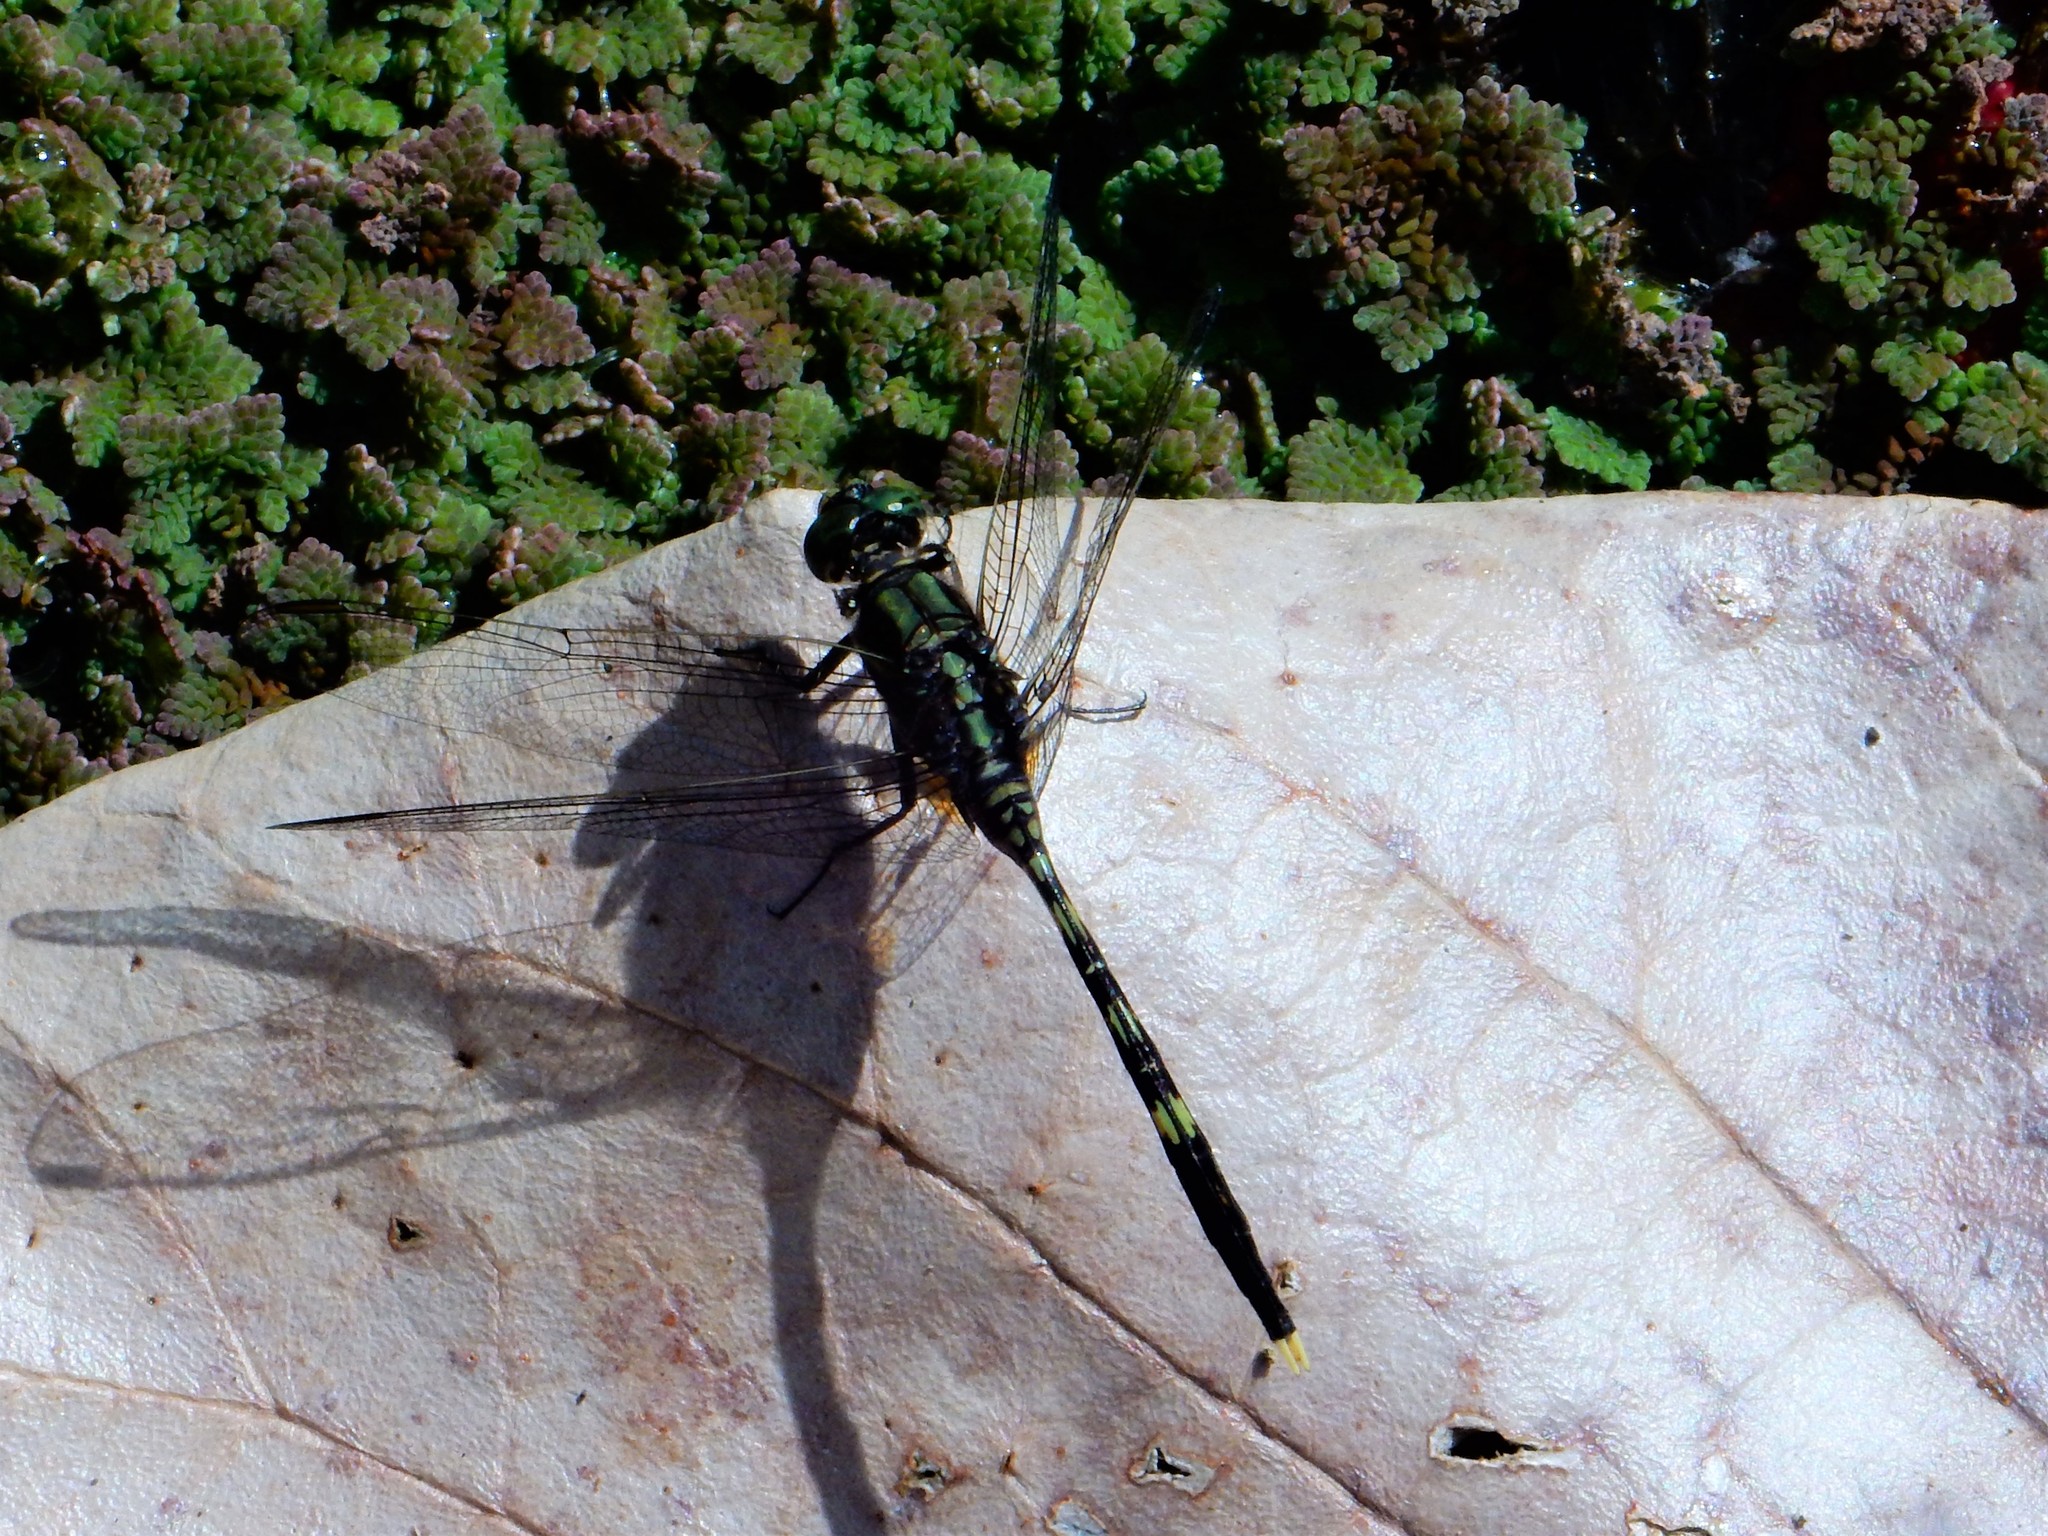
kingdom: Animalia
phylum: Arthropoda
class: Insecta
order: Odonata
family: Libellulidae
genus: Orthetrum
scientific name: Orthetrum serapia
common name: Green skimmer
